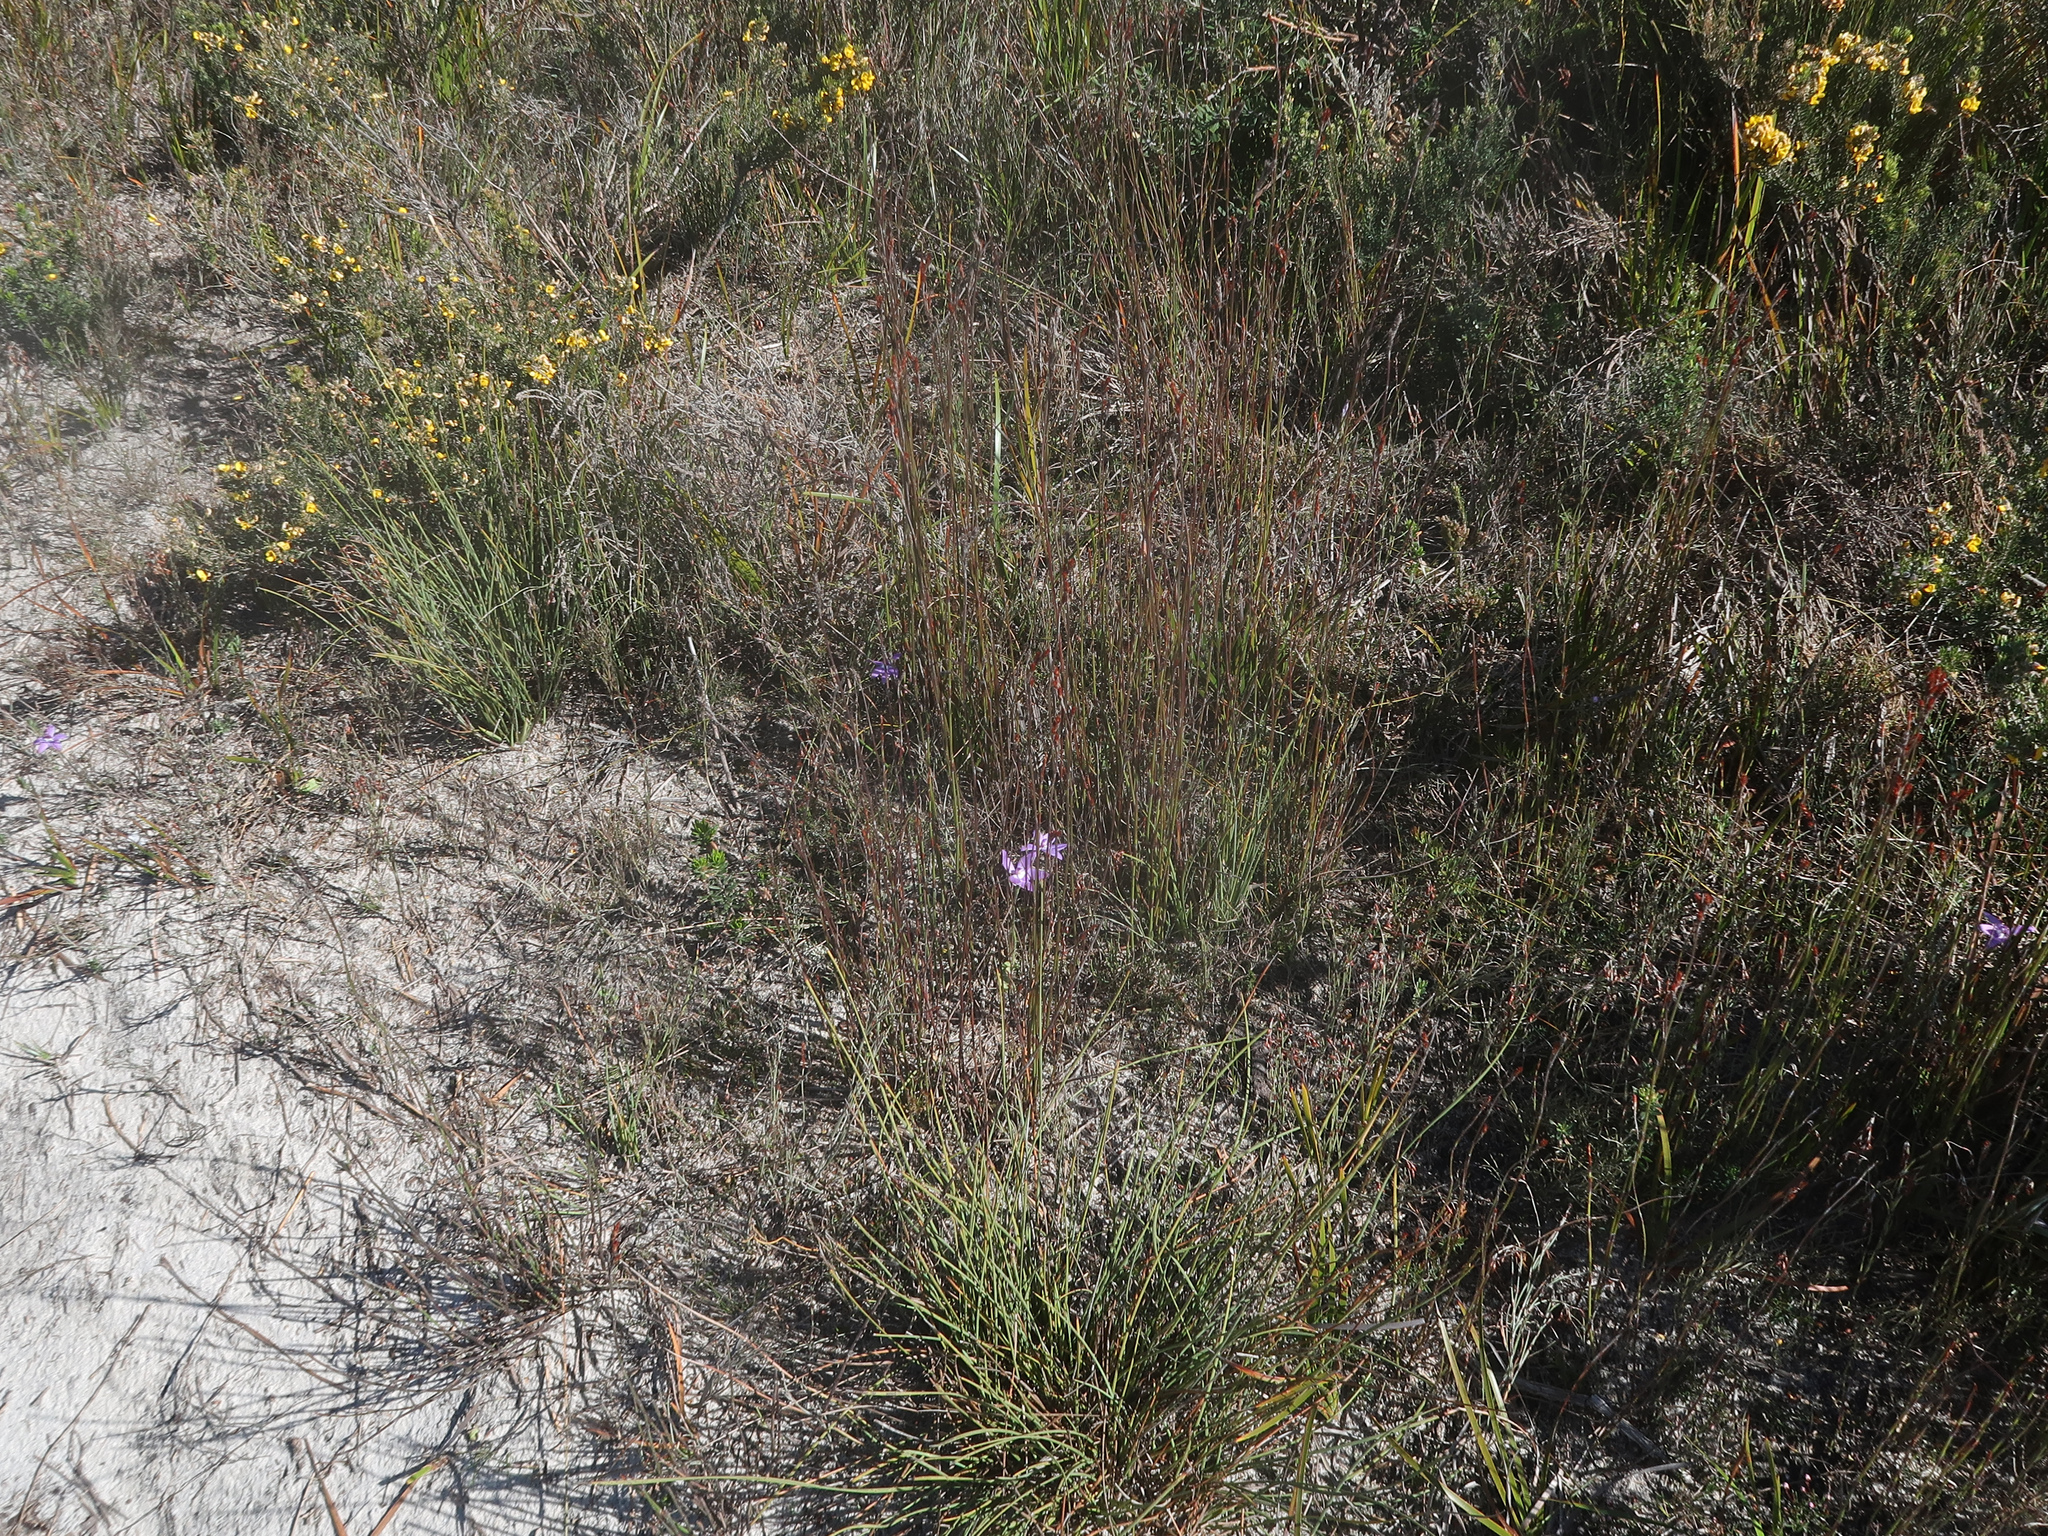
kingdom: Plantae
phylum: Tracheophyta
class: Liliopsida
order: Asparagales
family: Orchidaceae
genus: Caladenia
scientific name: Caladenia major
